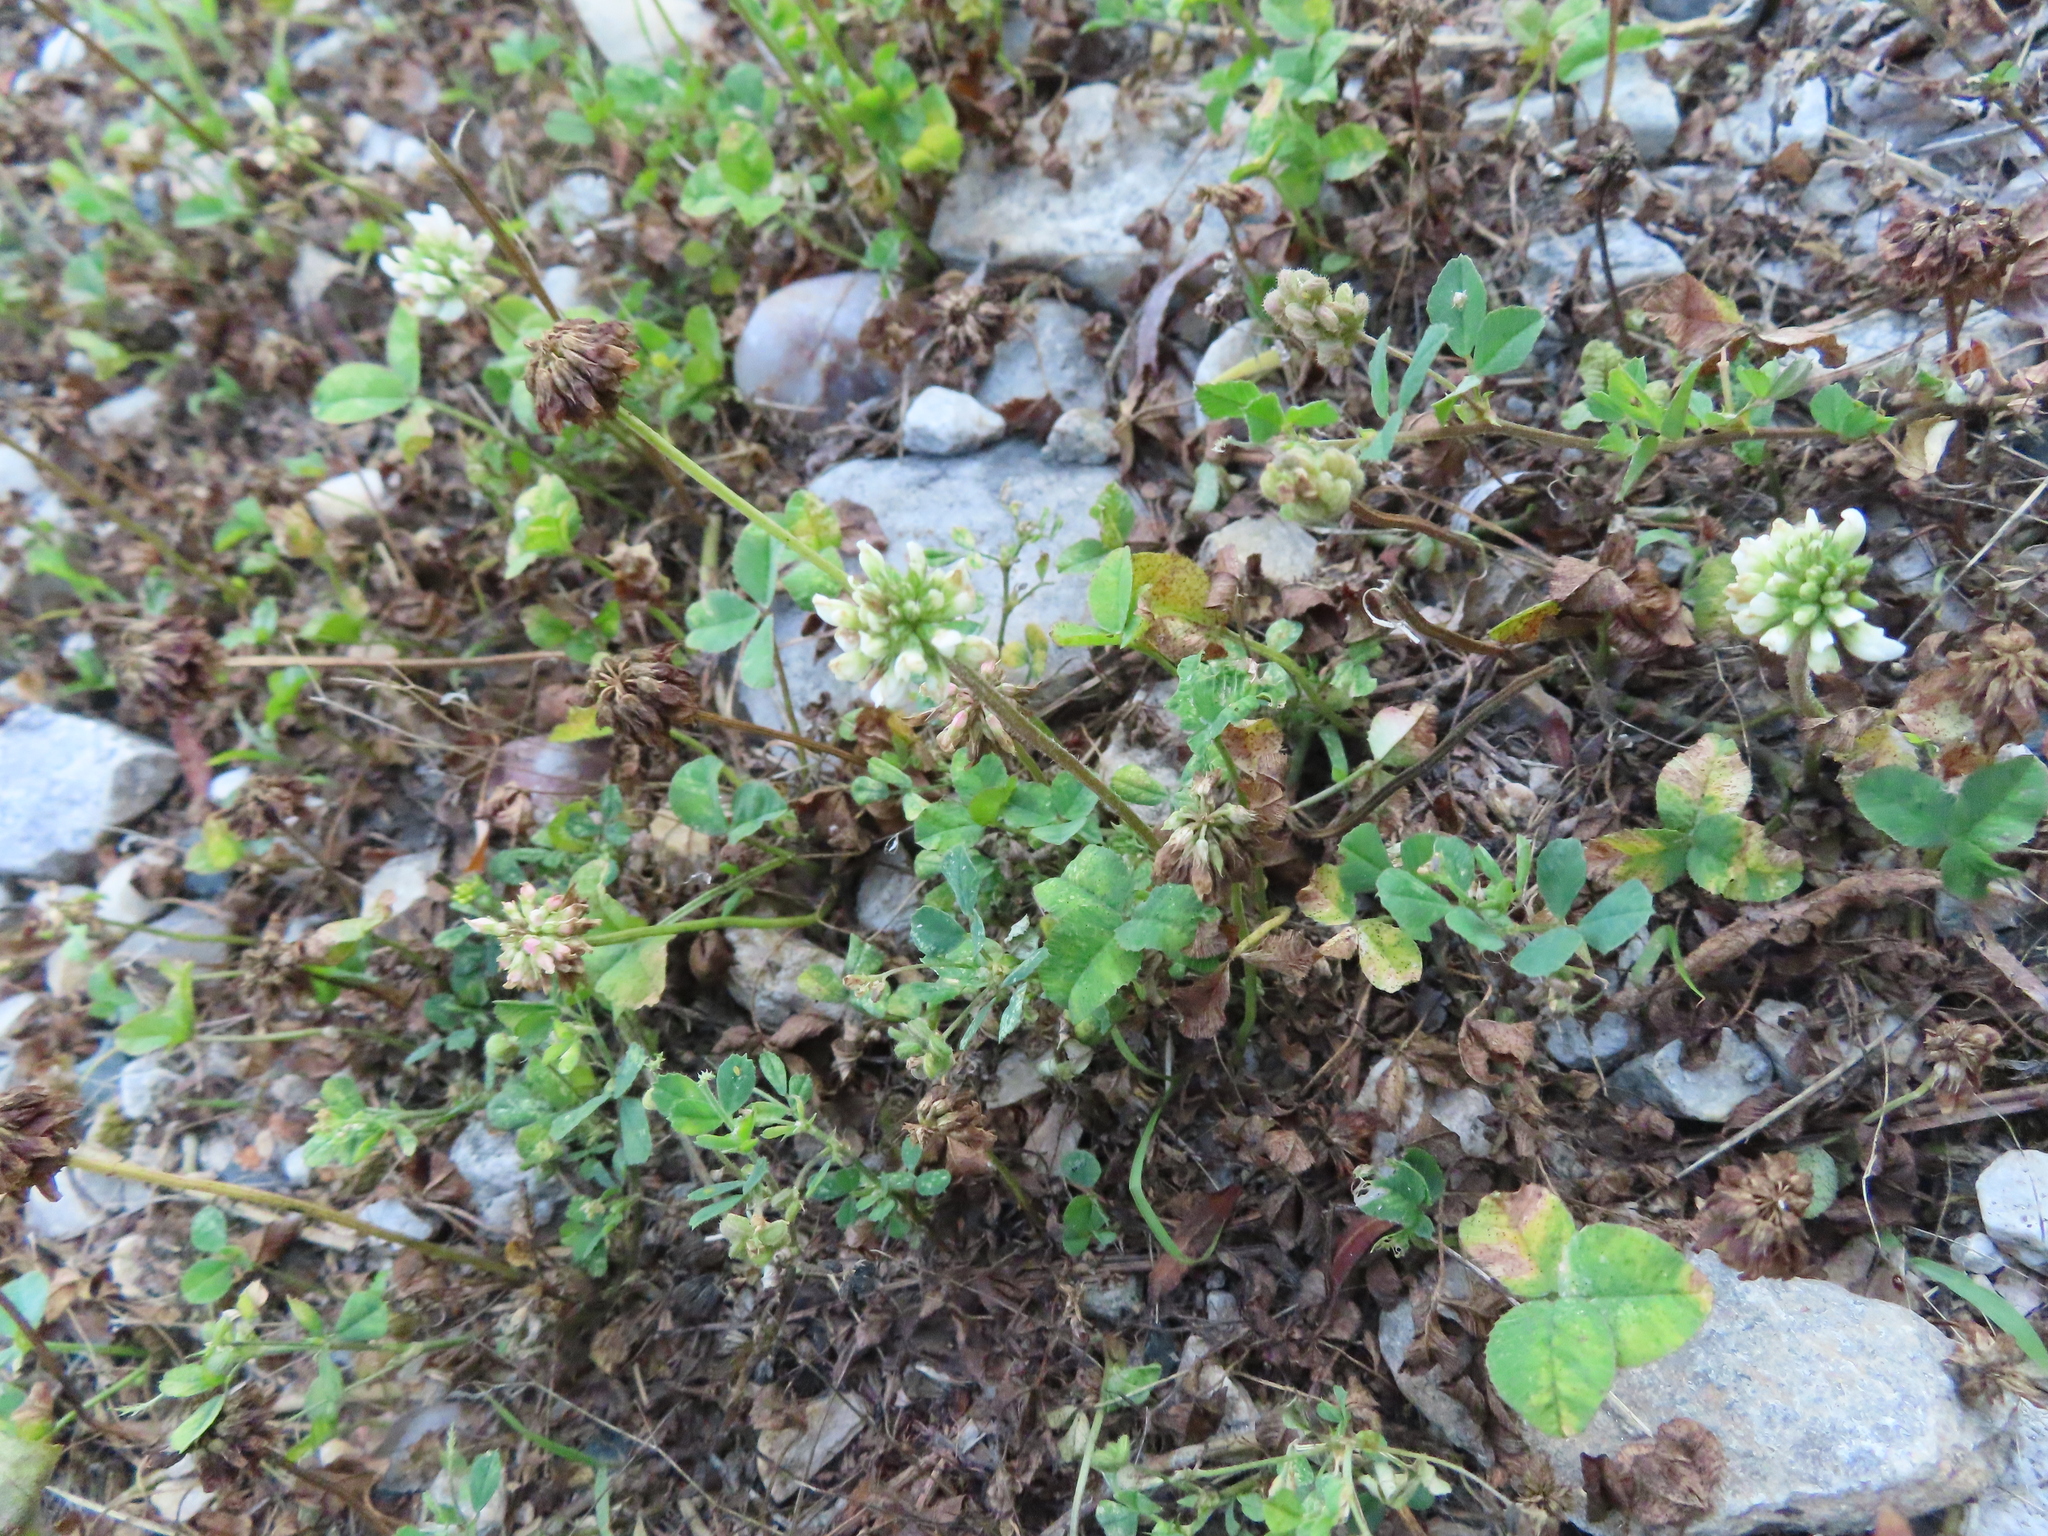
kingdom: Plantae
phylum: Tracheophyta
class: Magnoliopsida
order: Fabales
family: Fabaceae
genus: Trifolium
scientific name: Trifolium repens
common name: White clover
